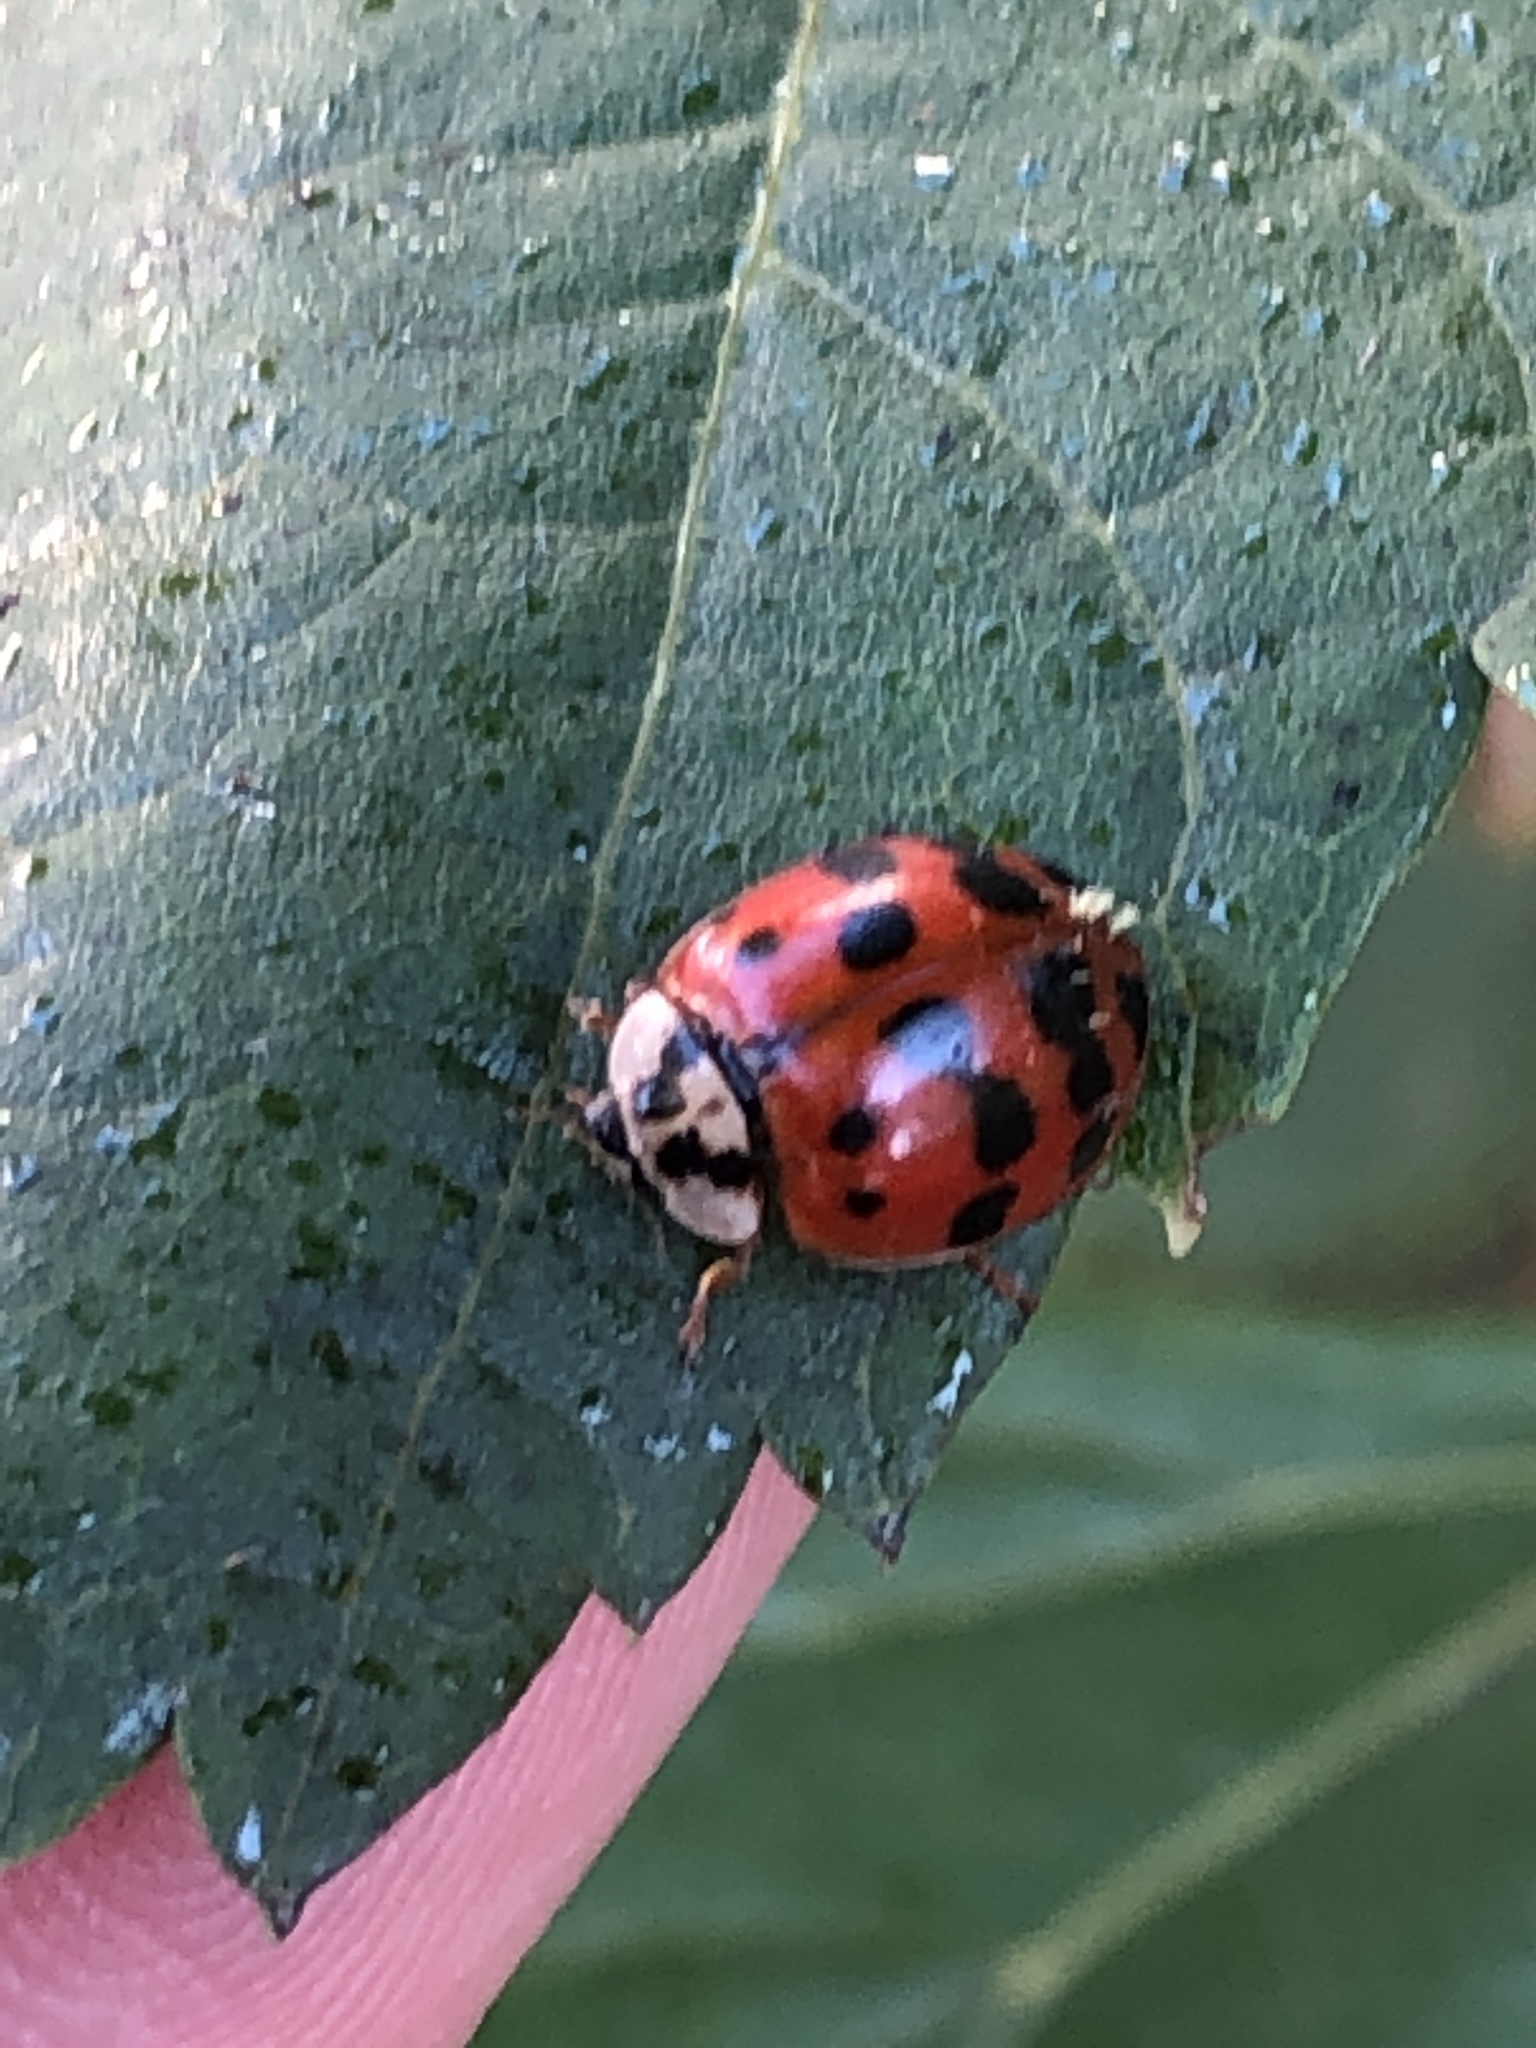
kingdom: Animalia
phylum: Arthropoda
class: Insecta
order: Coleoptera
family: Coccinellidae
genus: Harmonia
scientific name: Harmonia axyridis
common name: Harlequin ladybird
